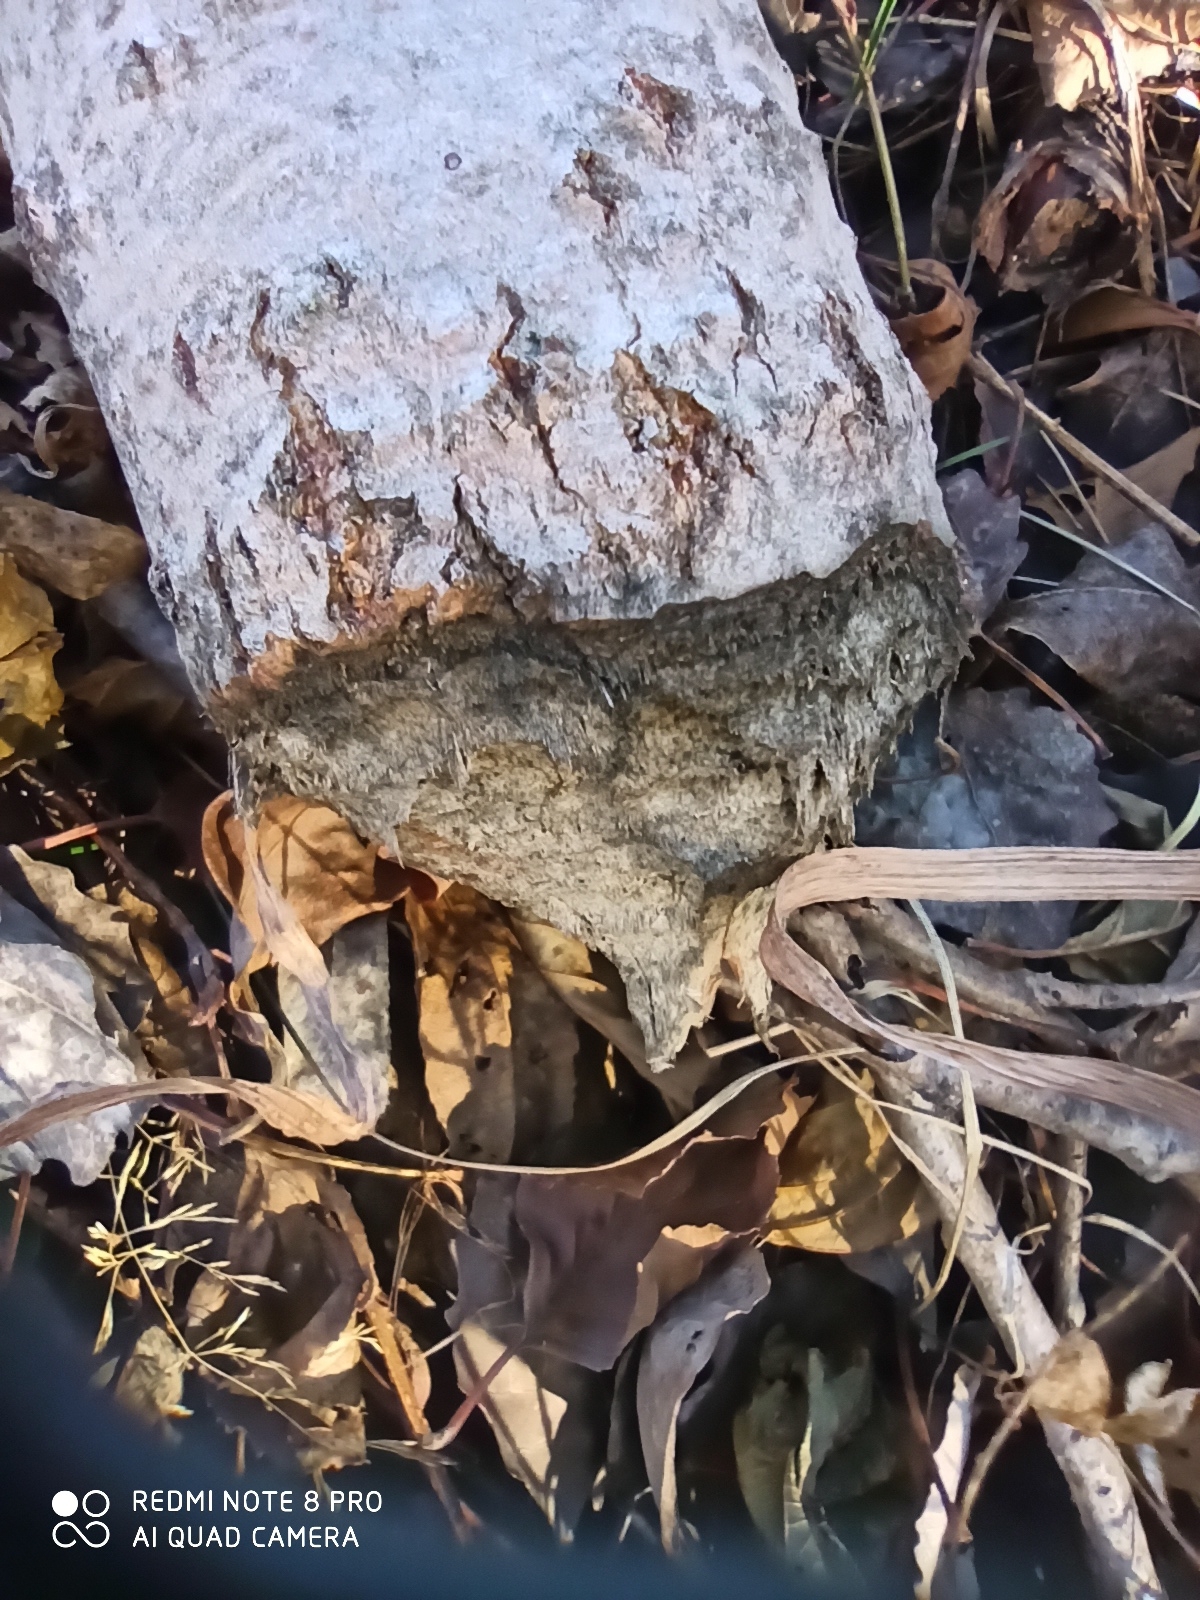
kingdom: Animalia
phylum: Chordata
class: Mammalia
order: Rodentia
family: Castoridae
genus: Castor
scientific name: Castor fiber
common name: Eurasian beaver
